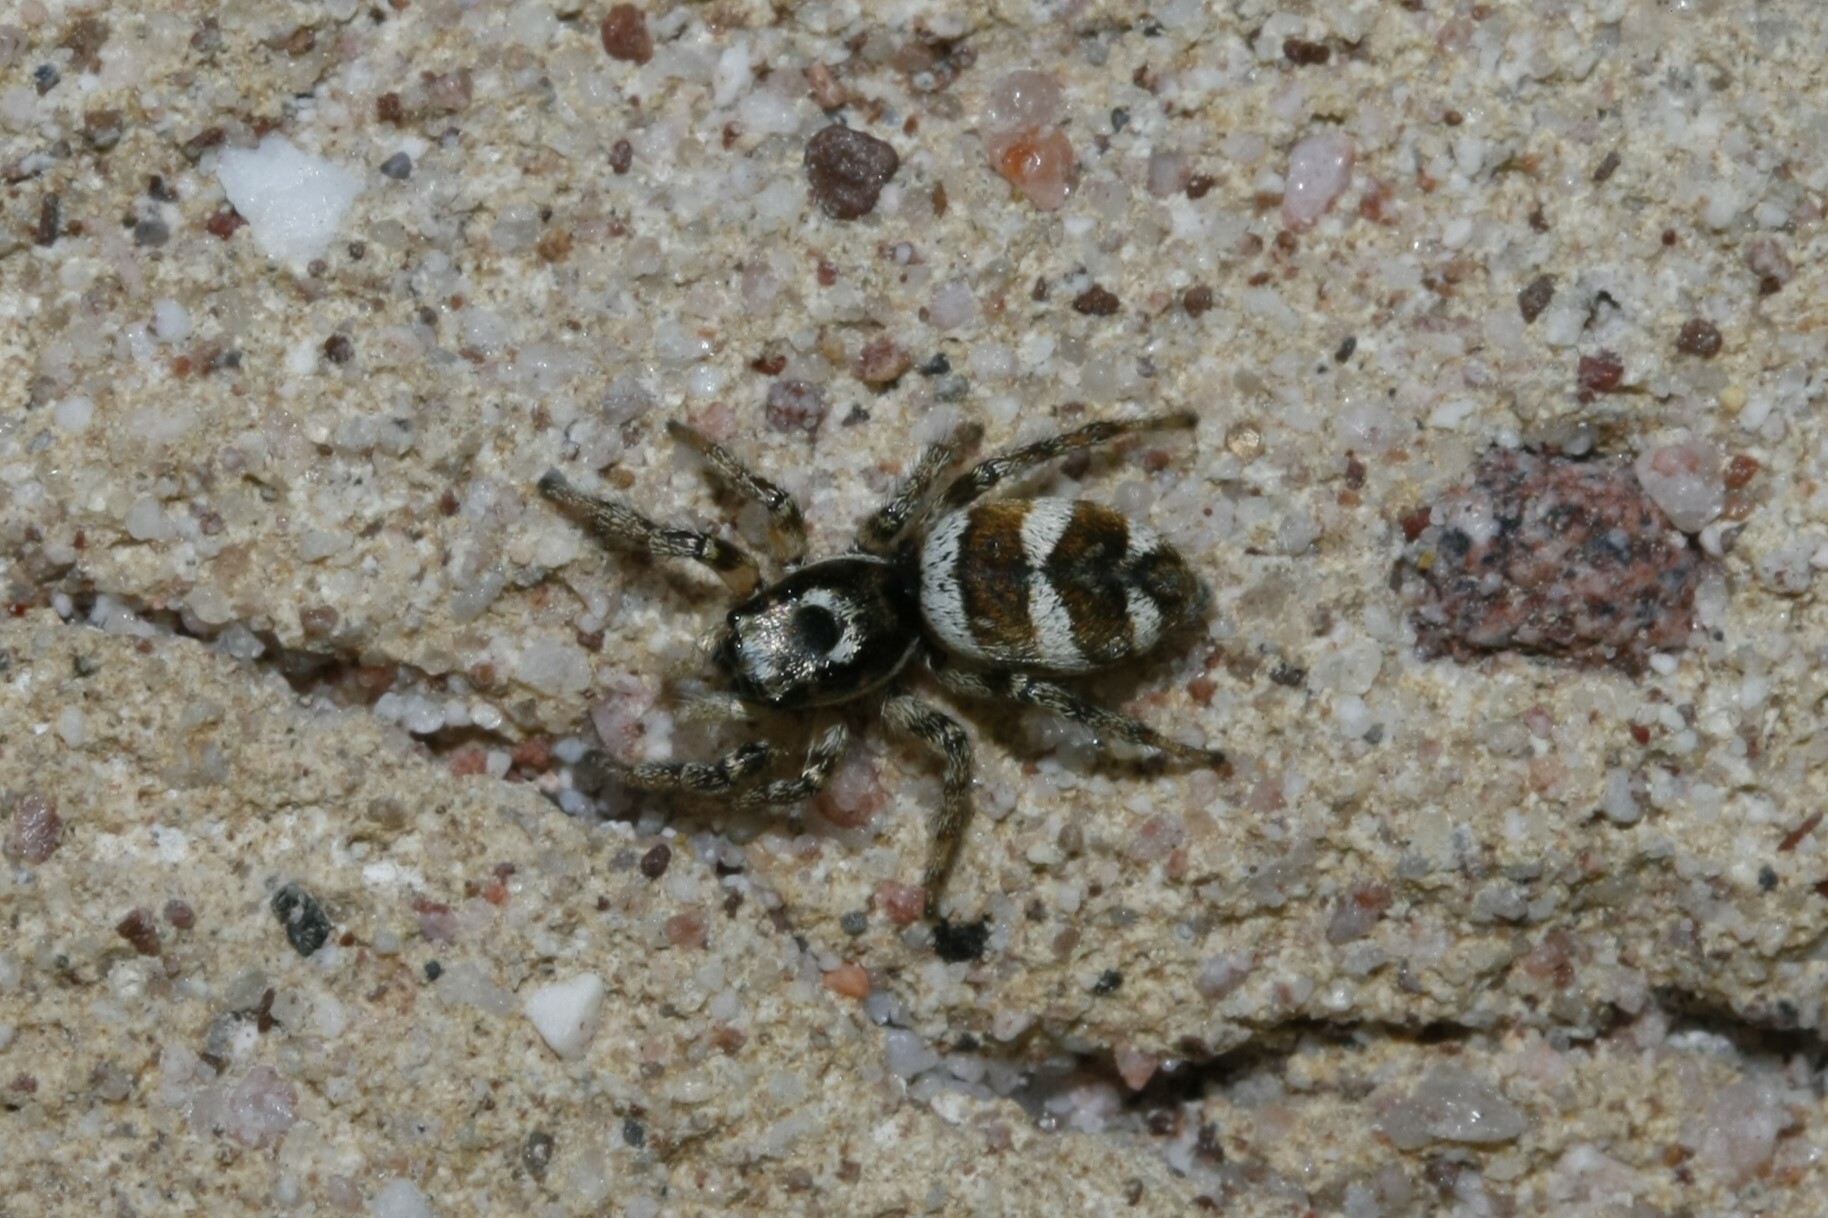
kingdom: Animalia
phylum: Arthropoda
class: Arachnida
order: Araneae
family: Salticidae
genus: Salticus
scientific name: Salticus scenicus
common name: Zebra jumper
